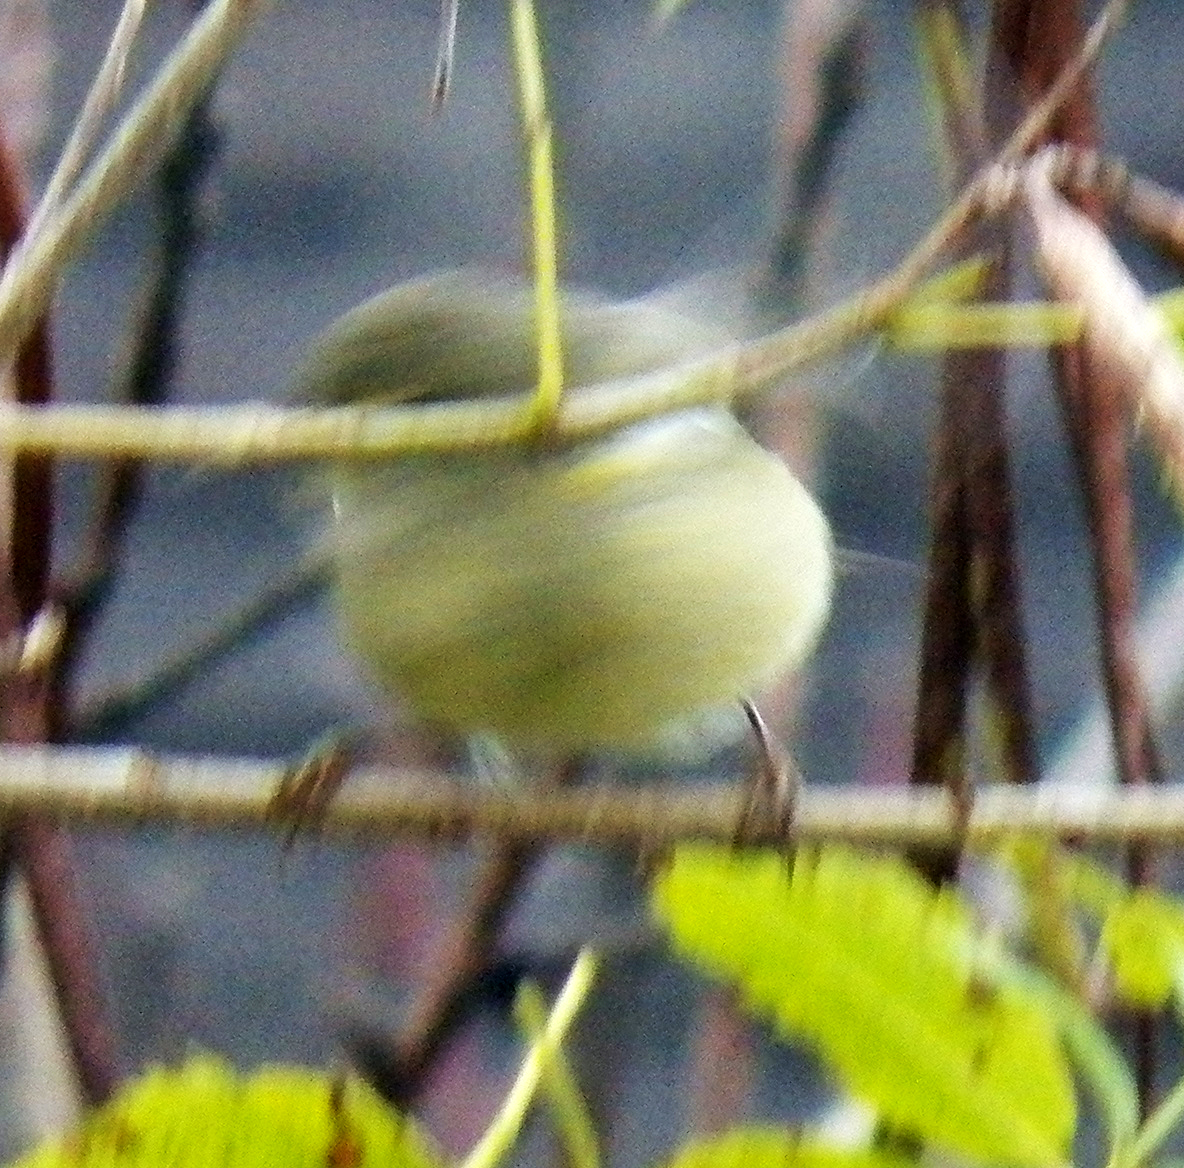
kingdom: Animalia
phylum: Chordata
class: Aves
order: Passeriformes
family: Parulidae
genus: Leiothlypis
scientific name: Leiothlypis celata
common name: Orange-crowned warbler
